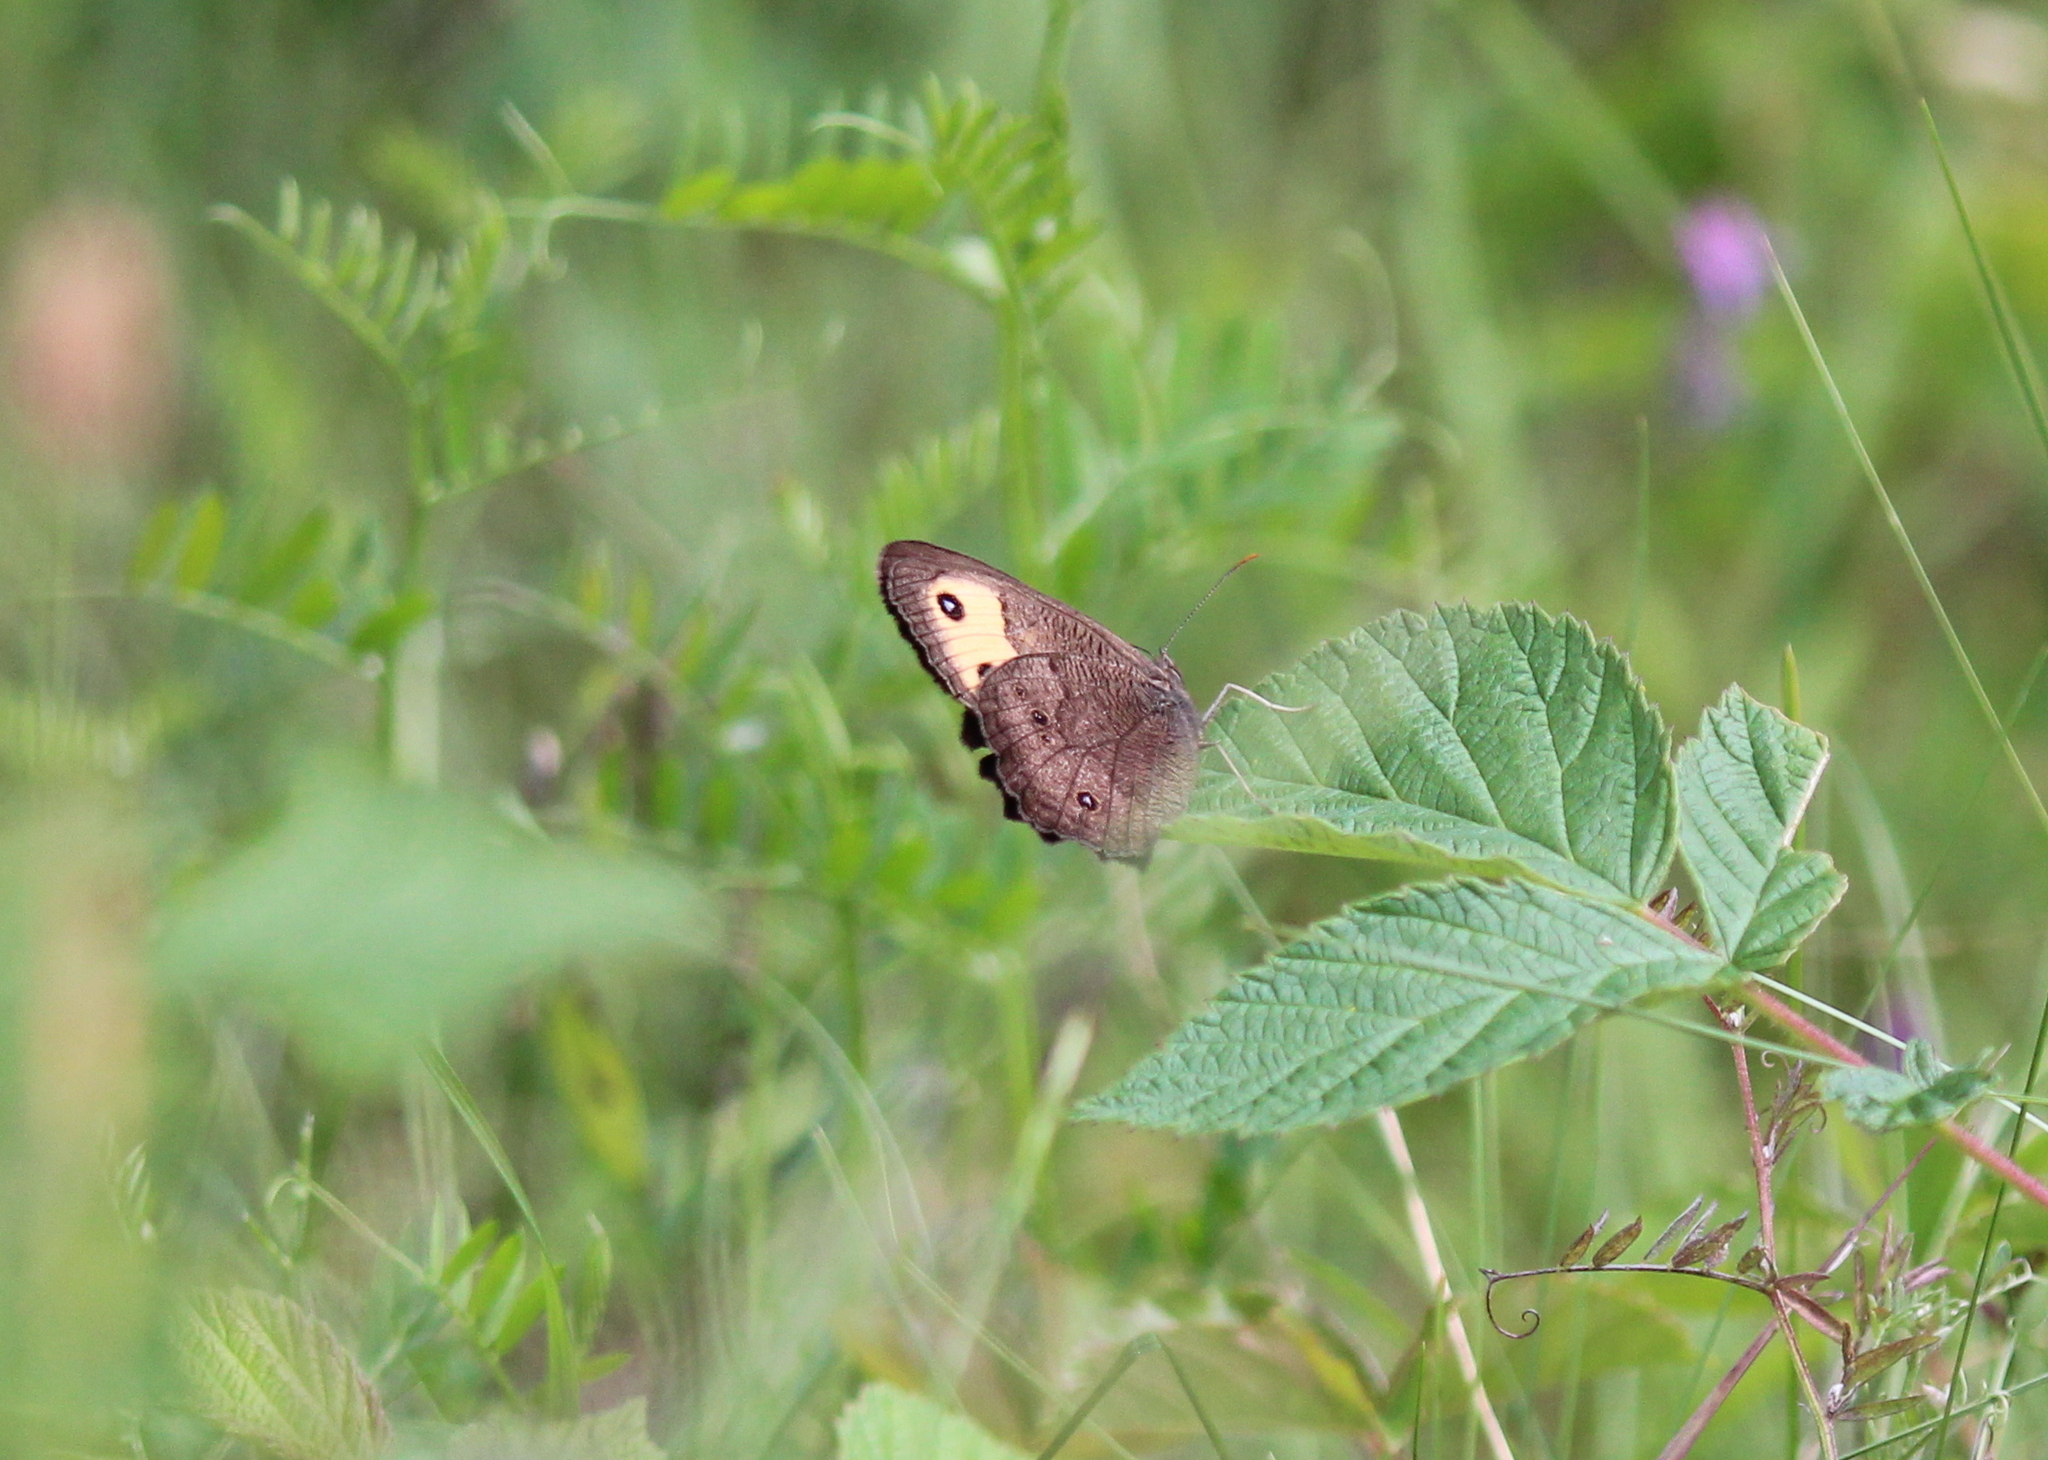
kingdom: Animalia
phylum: Arthropoda
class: Insecta
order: Lepidoptera
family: Nymphalidae
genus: Cercyonis
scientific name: Cercyonis pegala
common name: Common wood-nymph
